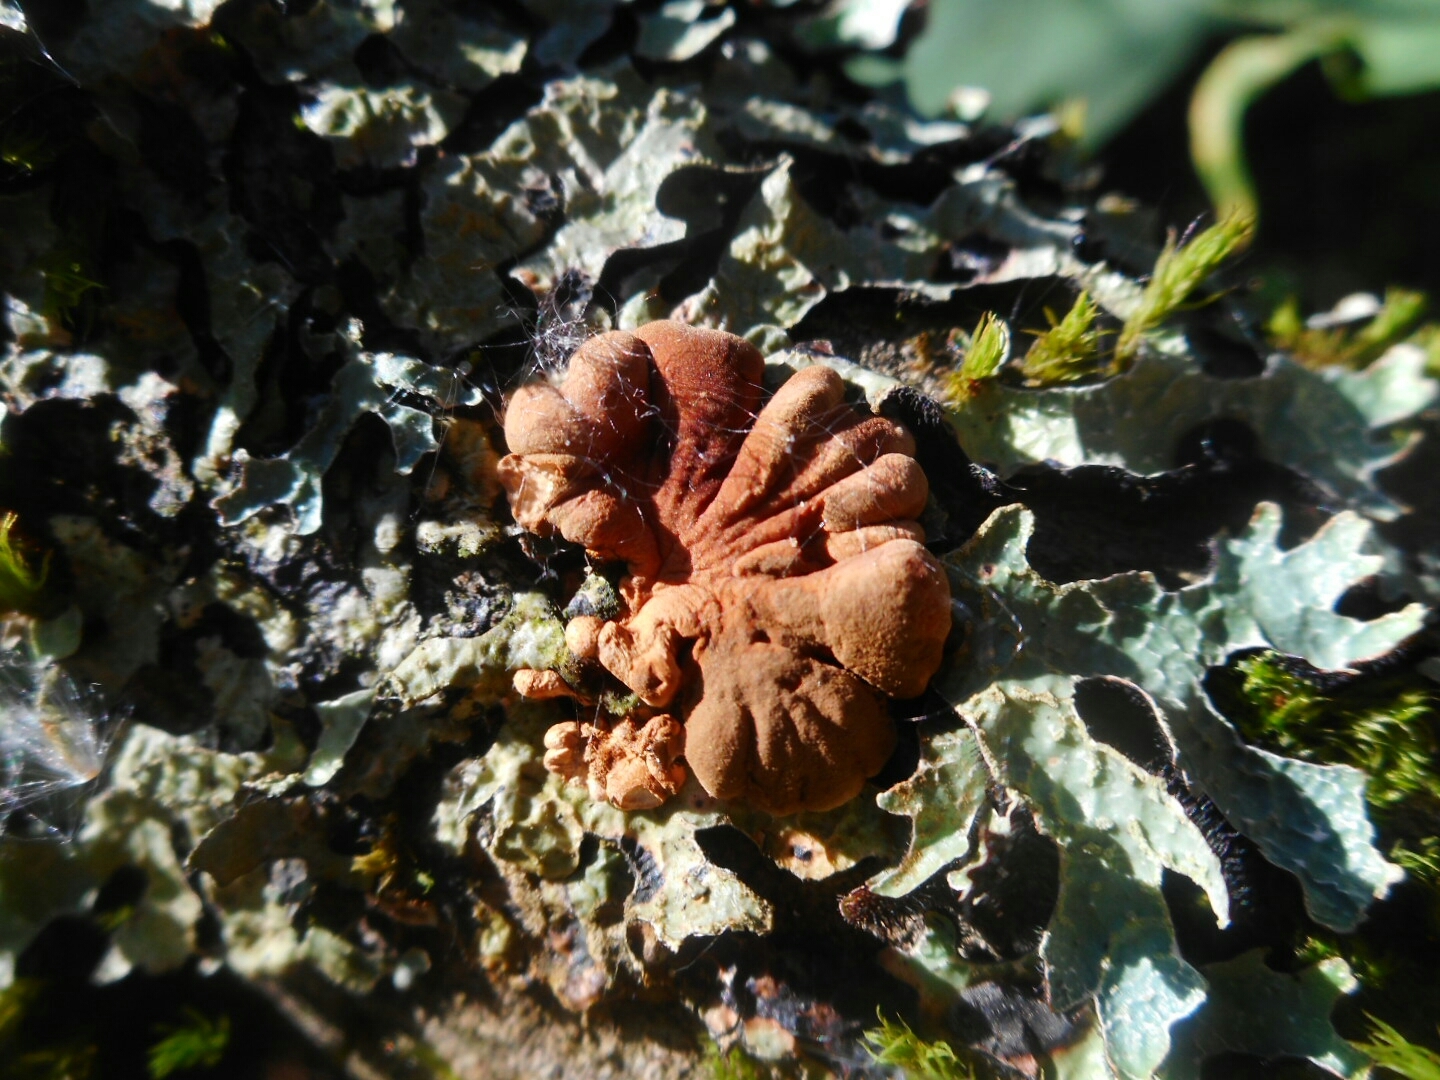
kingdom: Fungi
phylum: Ascomycota
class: Sordariomycetes
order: Hypocreales
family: Hypocreaceae
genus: Hypocreopsis
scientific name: Hypocreopsis lichenoides
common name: Willow gloves
